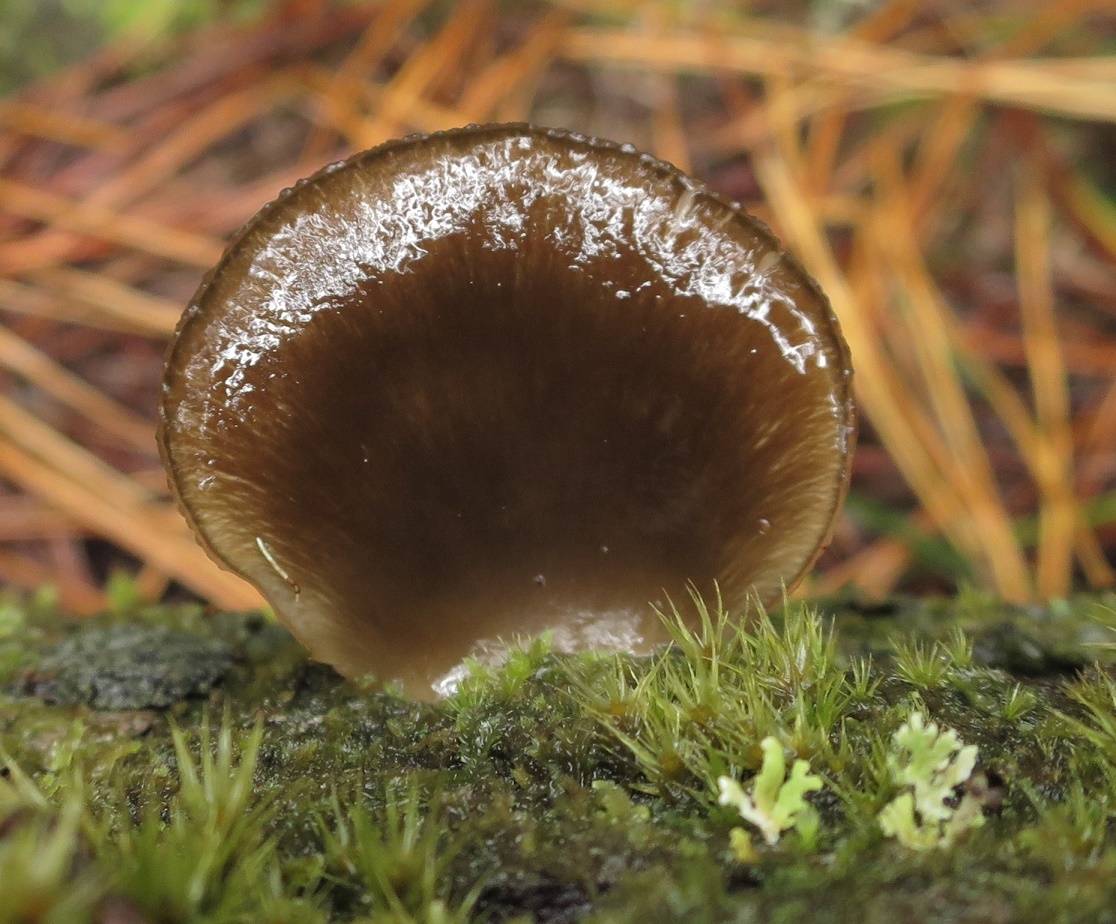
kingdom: Fungi
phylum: Basidiomycota
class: Agaricomycetes
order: Agaricales
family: Mycenaceae
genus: Panellus
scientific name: Panellus longinquus
